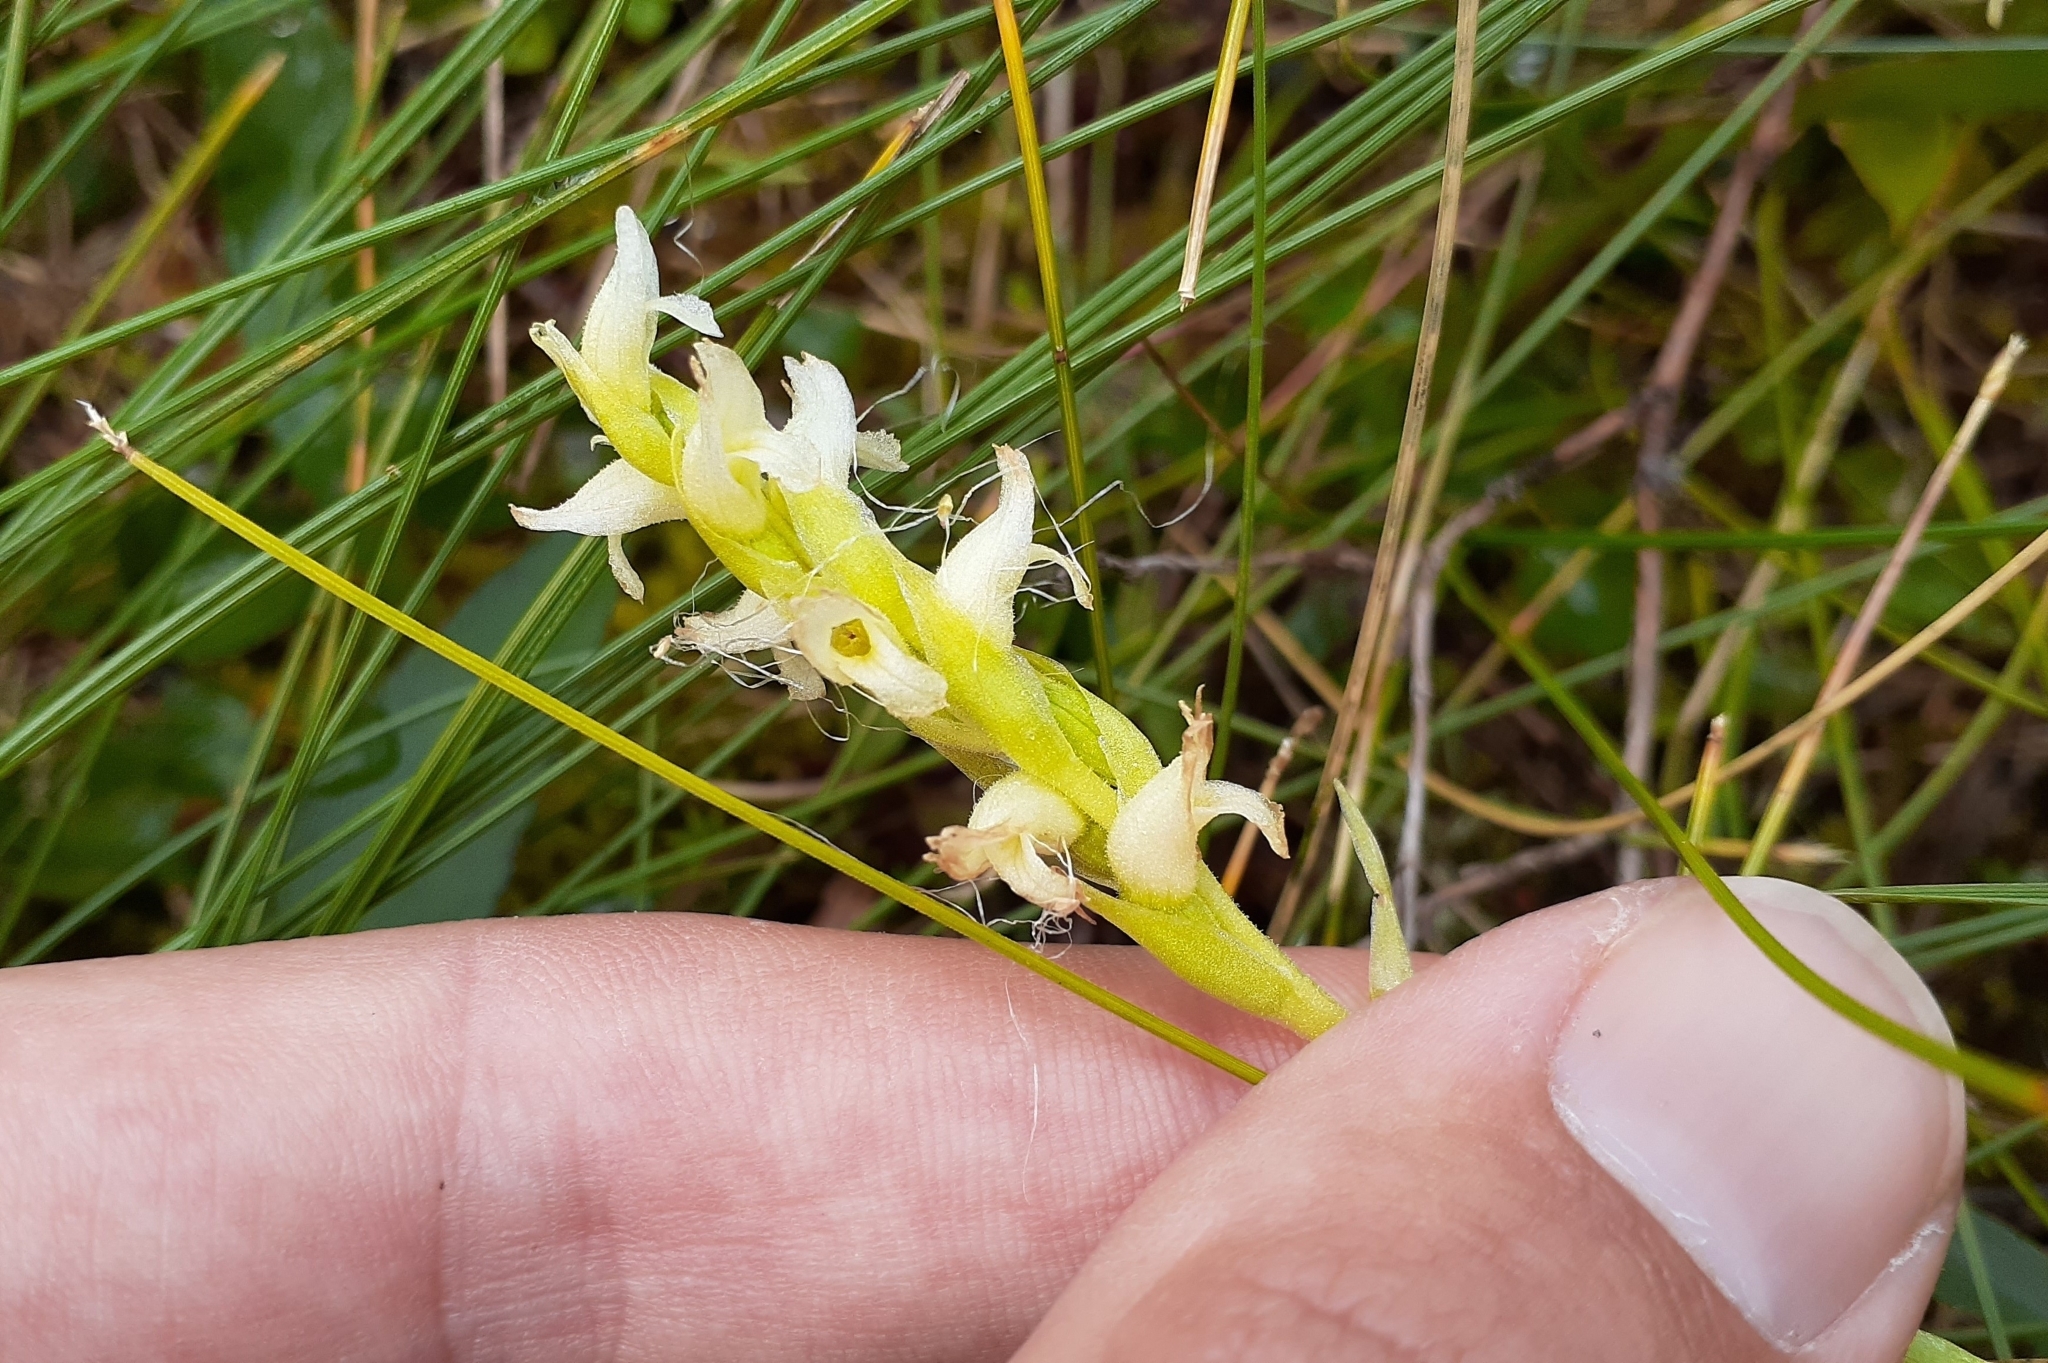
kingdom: Plantae
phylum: Tracheophyta
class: Liliopsida
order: Asparagales
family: Orchidaceae
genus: Spiranthes
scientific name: Spiranthes romanzoffiana
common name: Irish lady's-tresses
